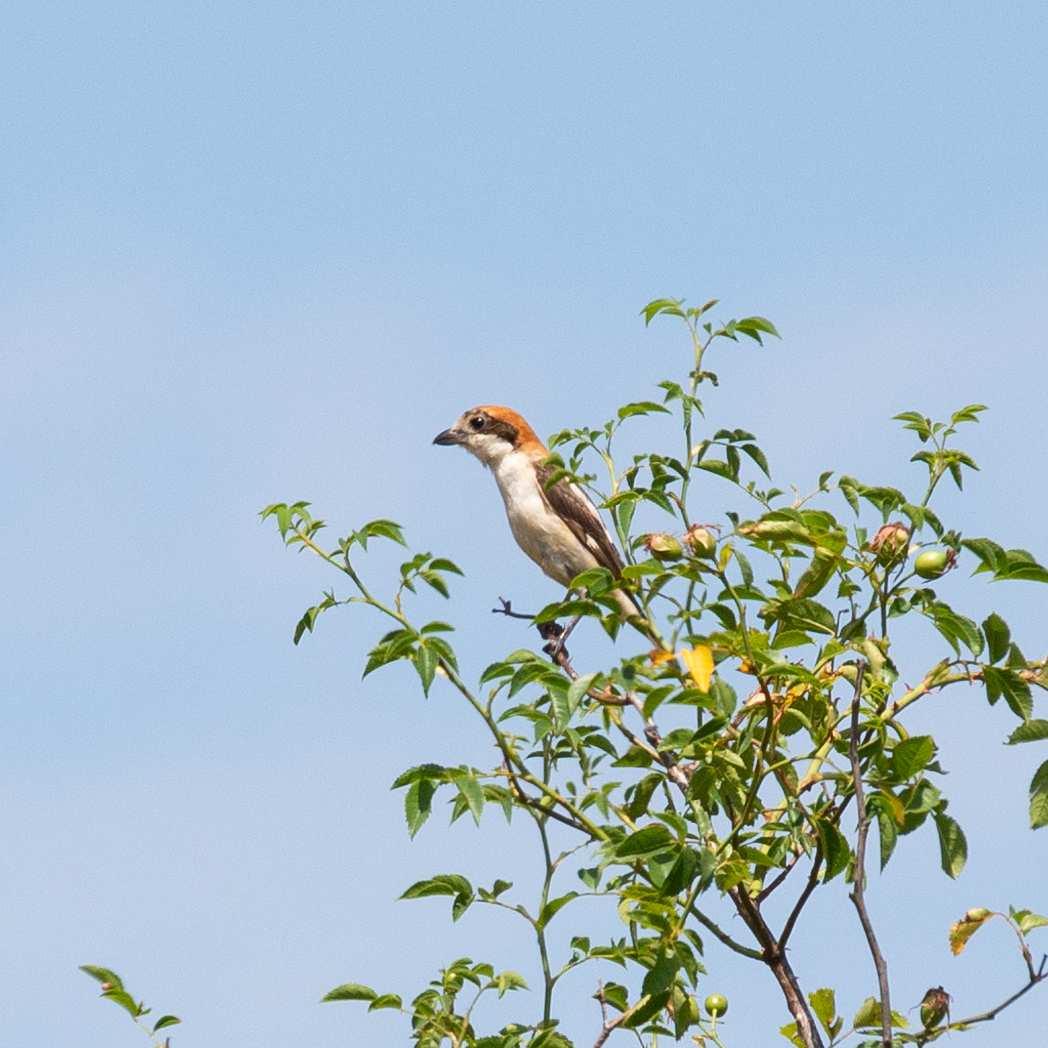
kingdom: Animalia
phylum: Chordata
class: Aves
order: Passeriformes
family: Laniidae
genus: Lanius
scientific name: Lanius senator
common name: Woodchat shrike
